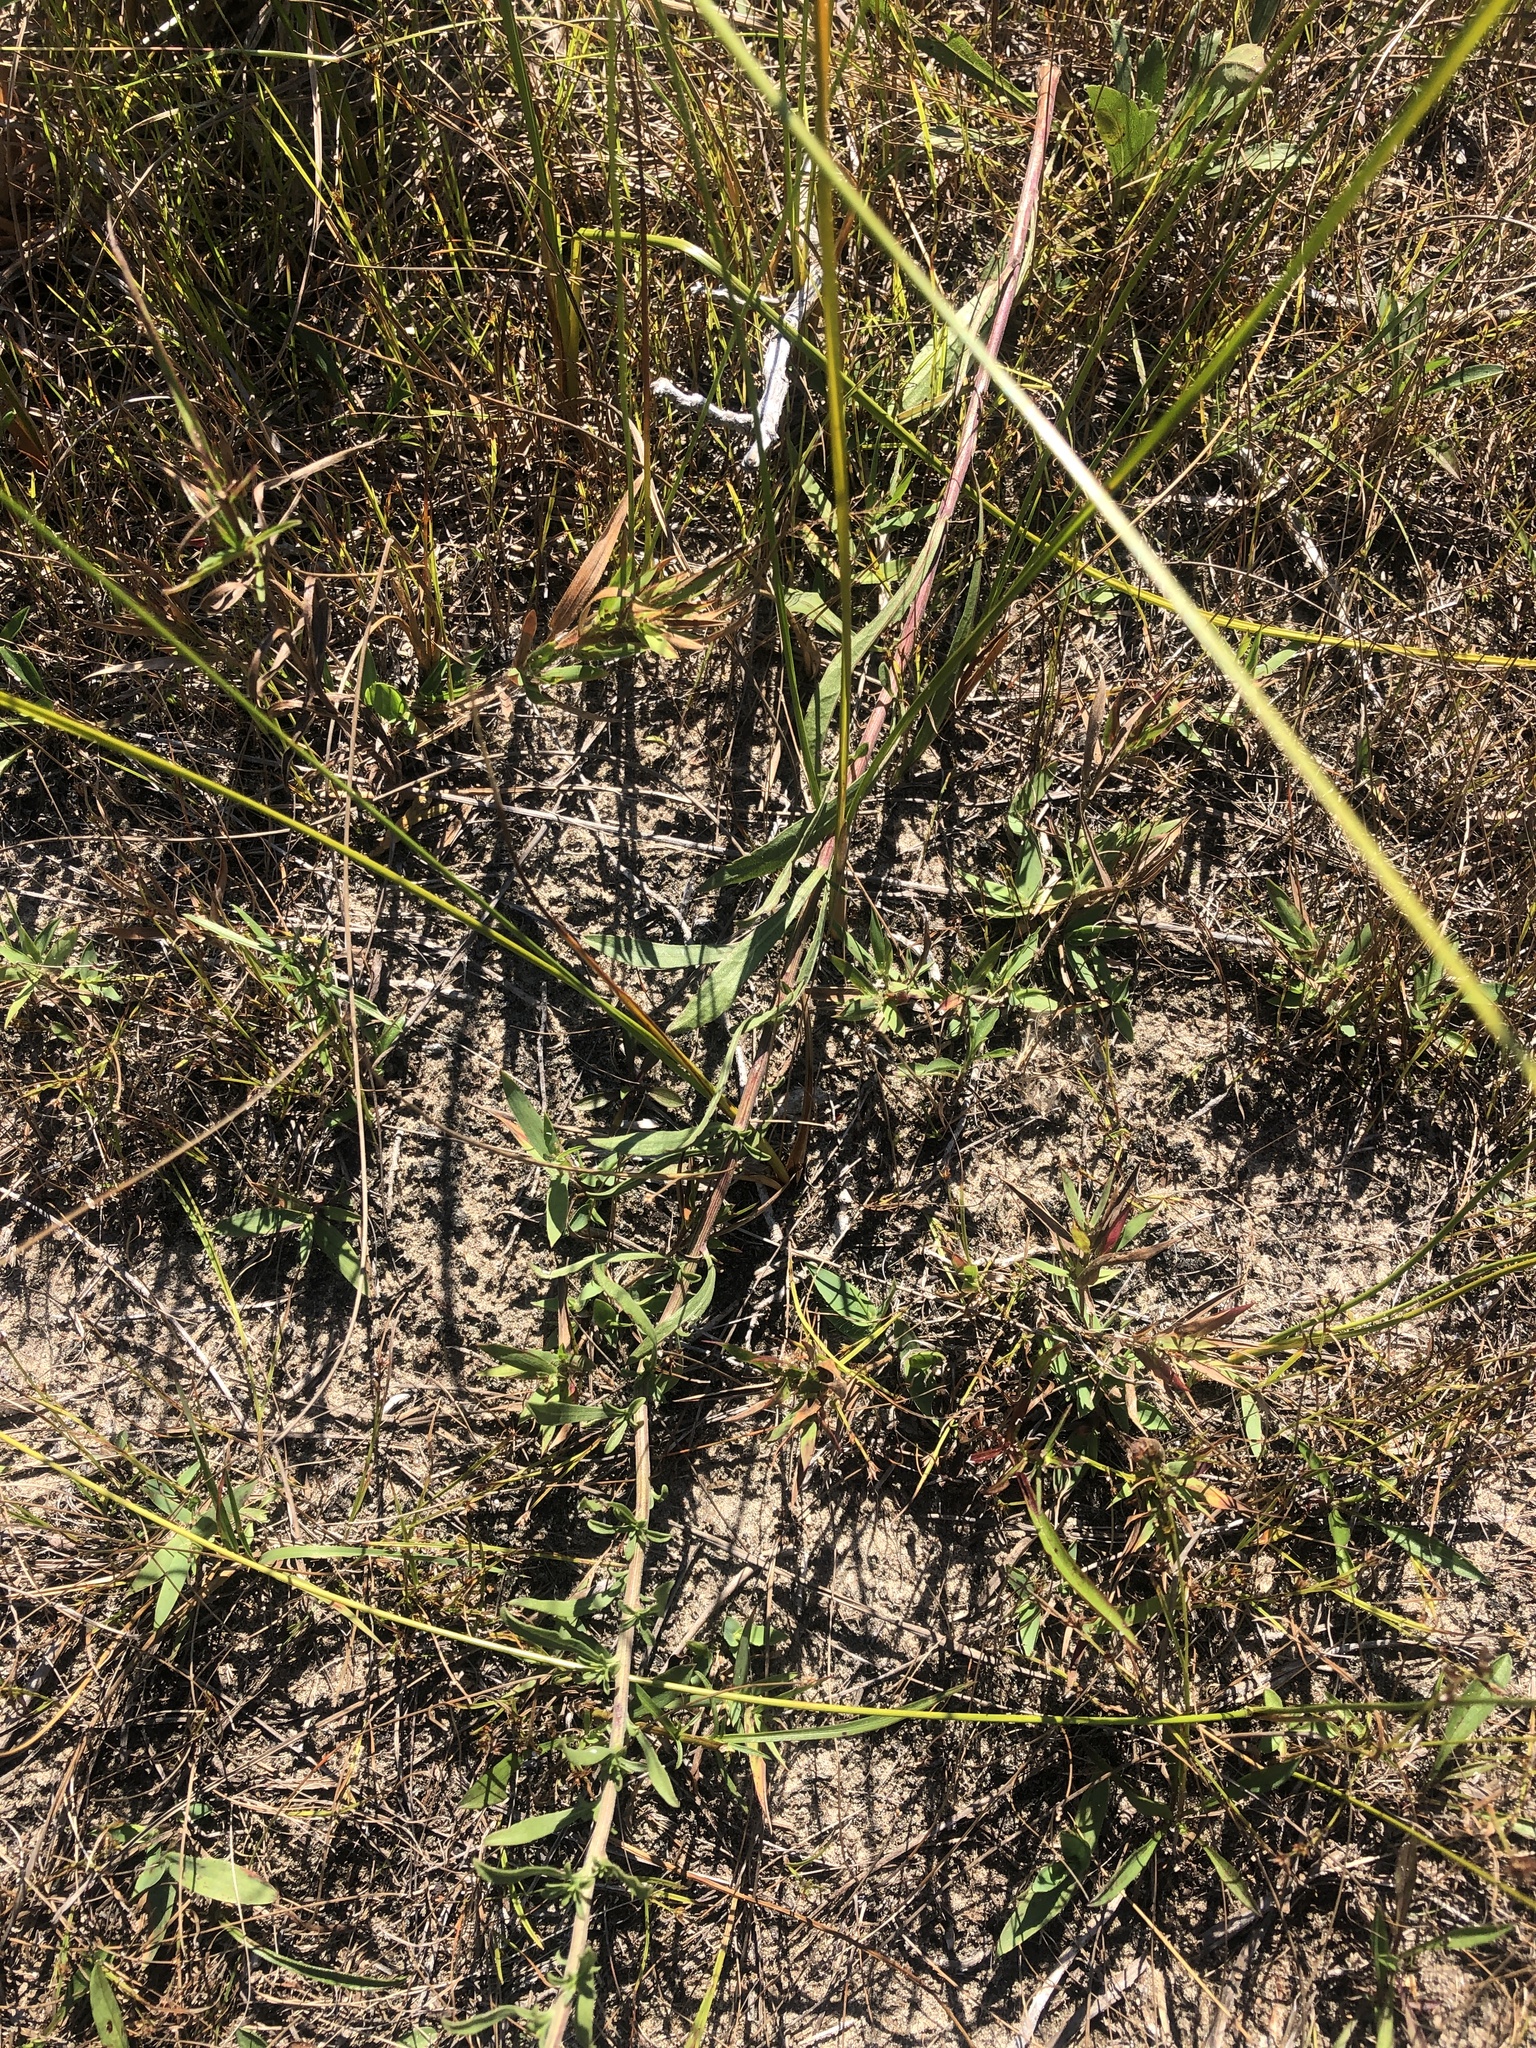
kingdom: Plantae
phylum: Tracheophyta
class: Magnoliopsida
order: Asterales
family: Asteraceae
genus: Solidago
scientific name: Solidago nemoralis
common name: Grey goldenrod
